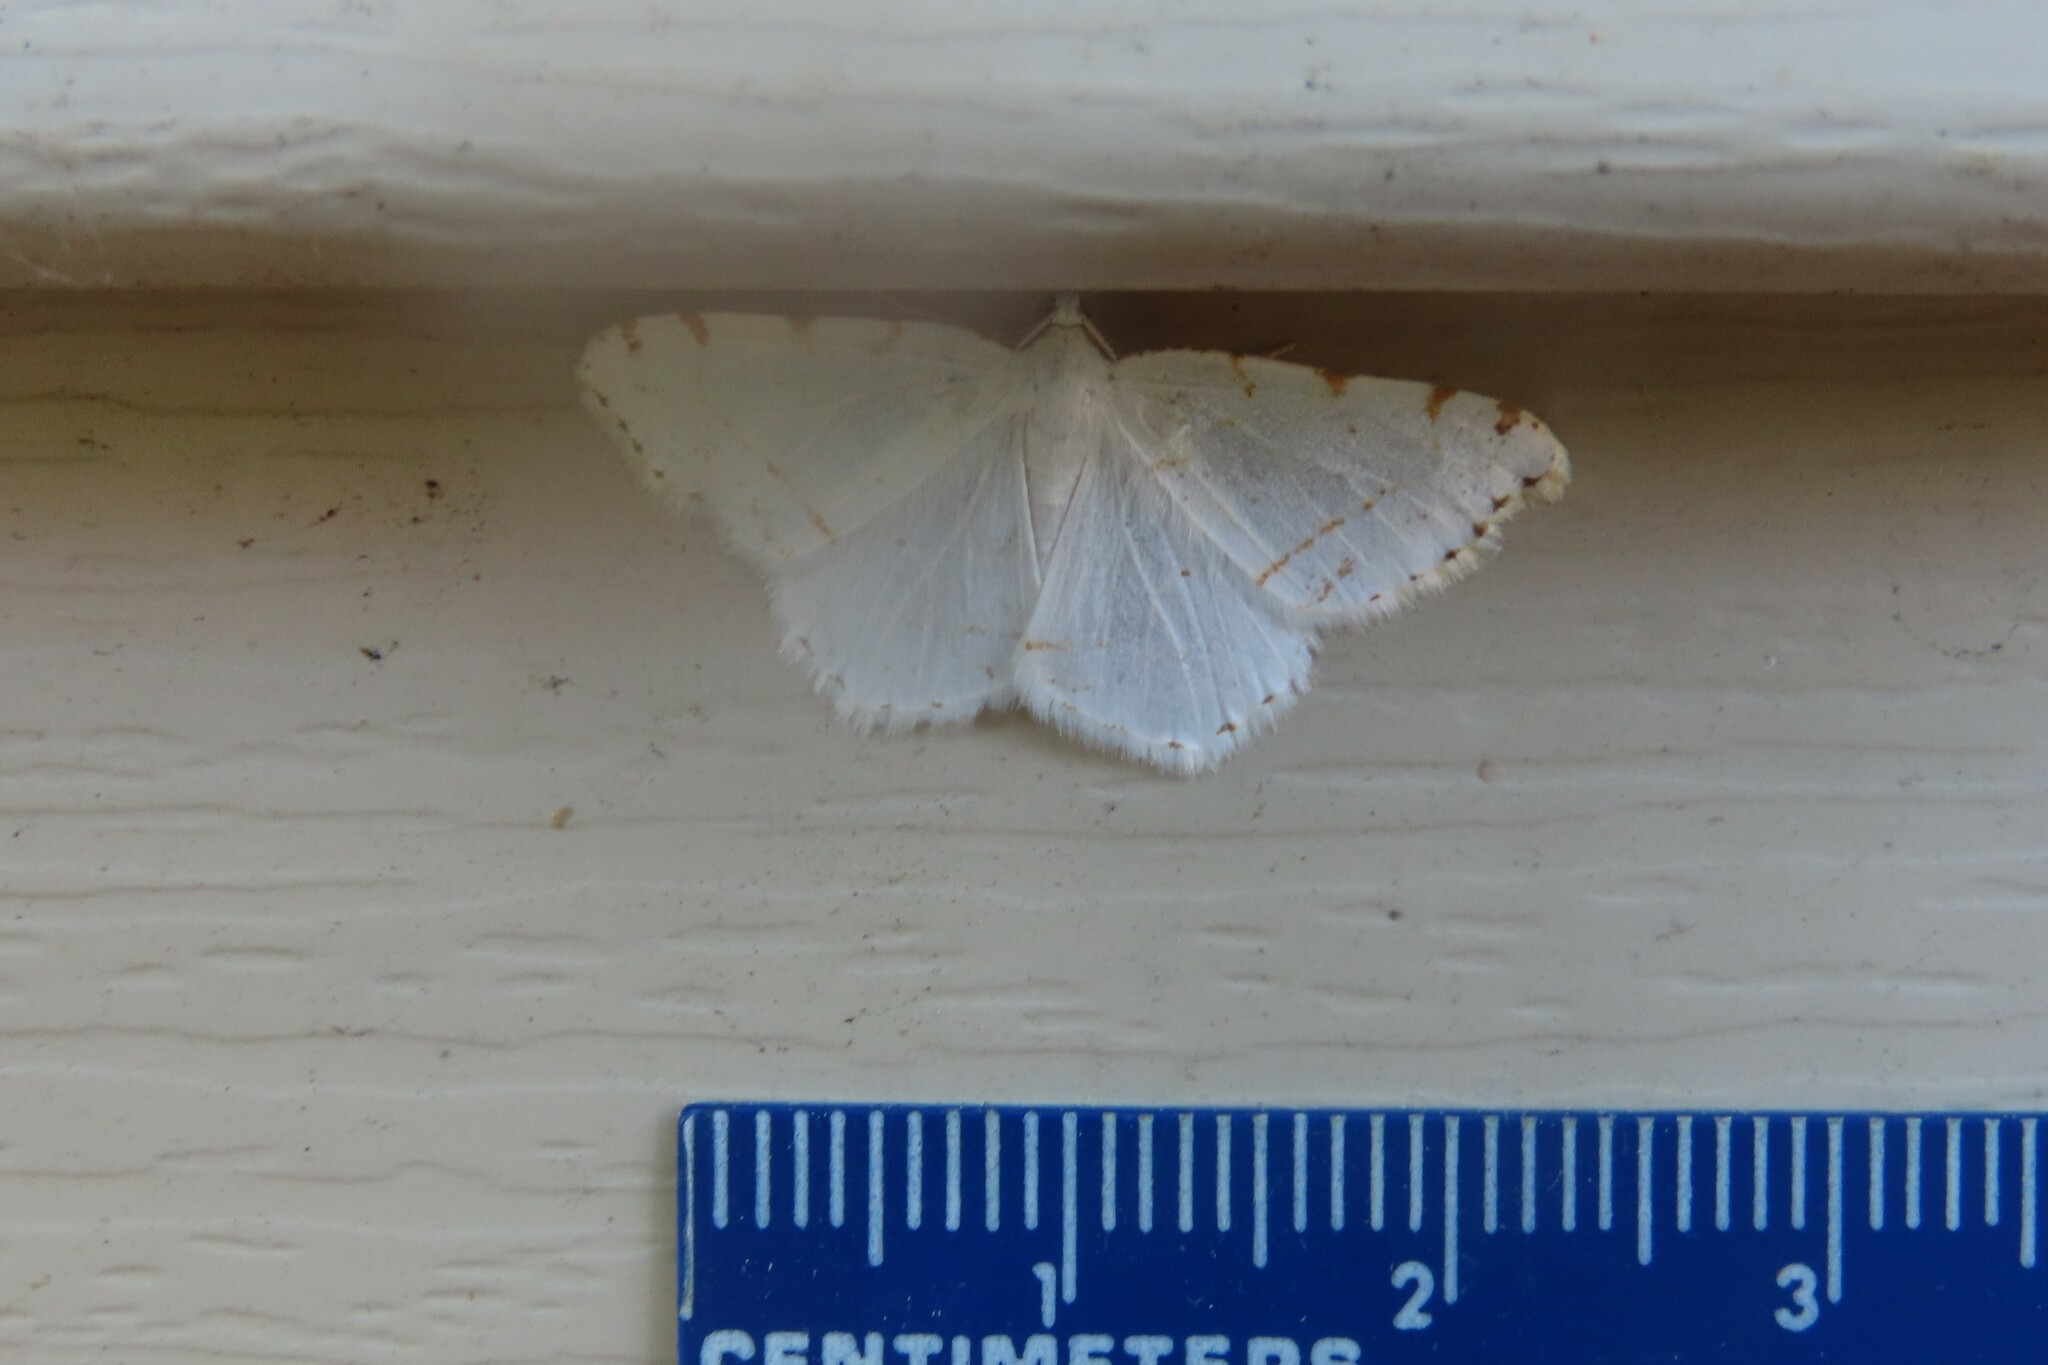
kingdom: Animalia
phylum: Arthropoda
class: Insecta
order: Lepidoptera
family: Geometridae
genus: Macaria
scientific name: Macaria pustularia
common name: Lesser maple spanworm moth
